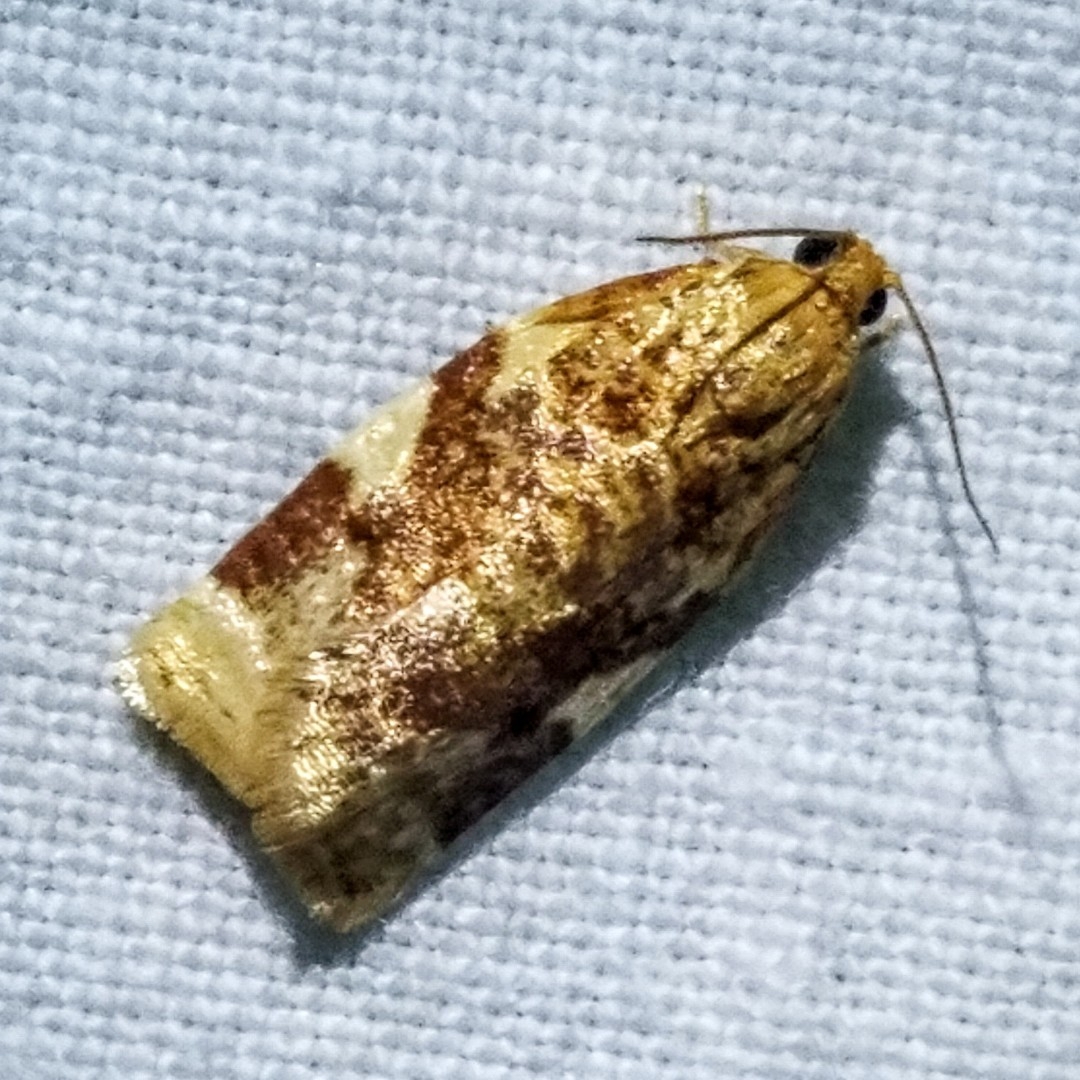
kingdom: Animalia
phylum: Arthropoda
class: Insecta
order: Lepidoptera
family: Tortricidae
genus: Archips
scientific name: Archips argyrospila
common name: Fruit-tree leafroller moth
